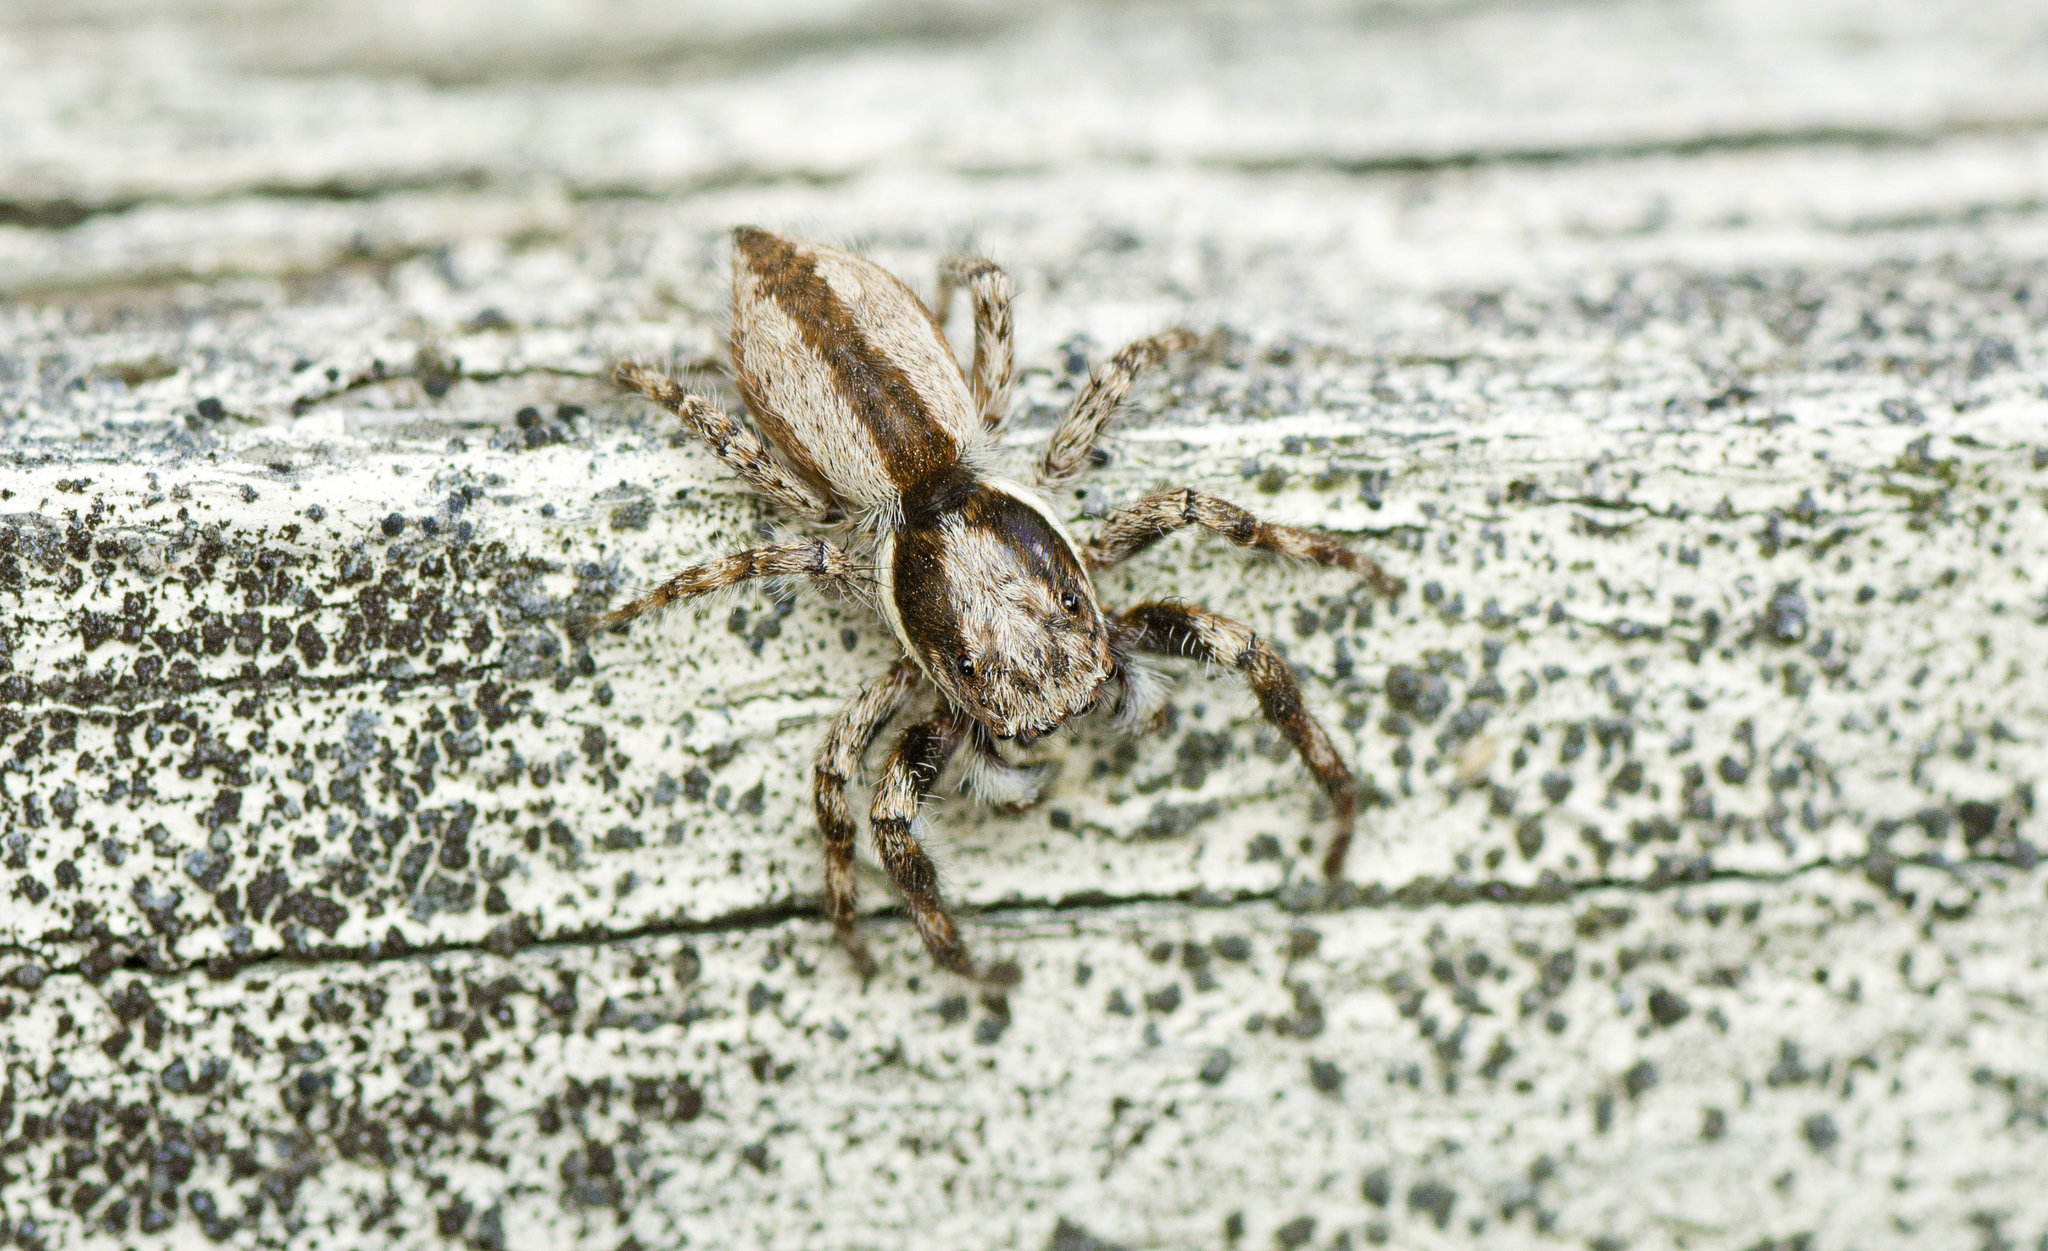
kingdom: Animalia
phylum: Arthropoda
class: Arachnida
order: Araneae
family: Salticidae
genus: Menemerus
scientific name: Menemerus bivittatus
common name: Gray wall jumper
